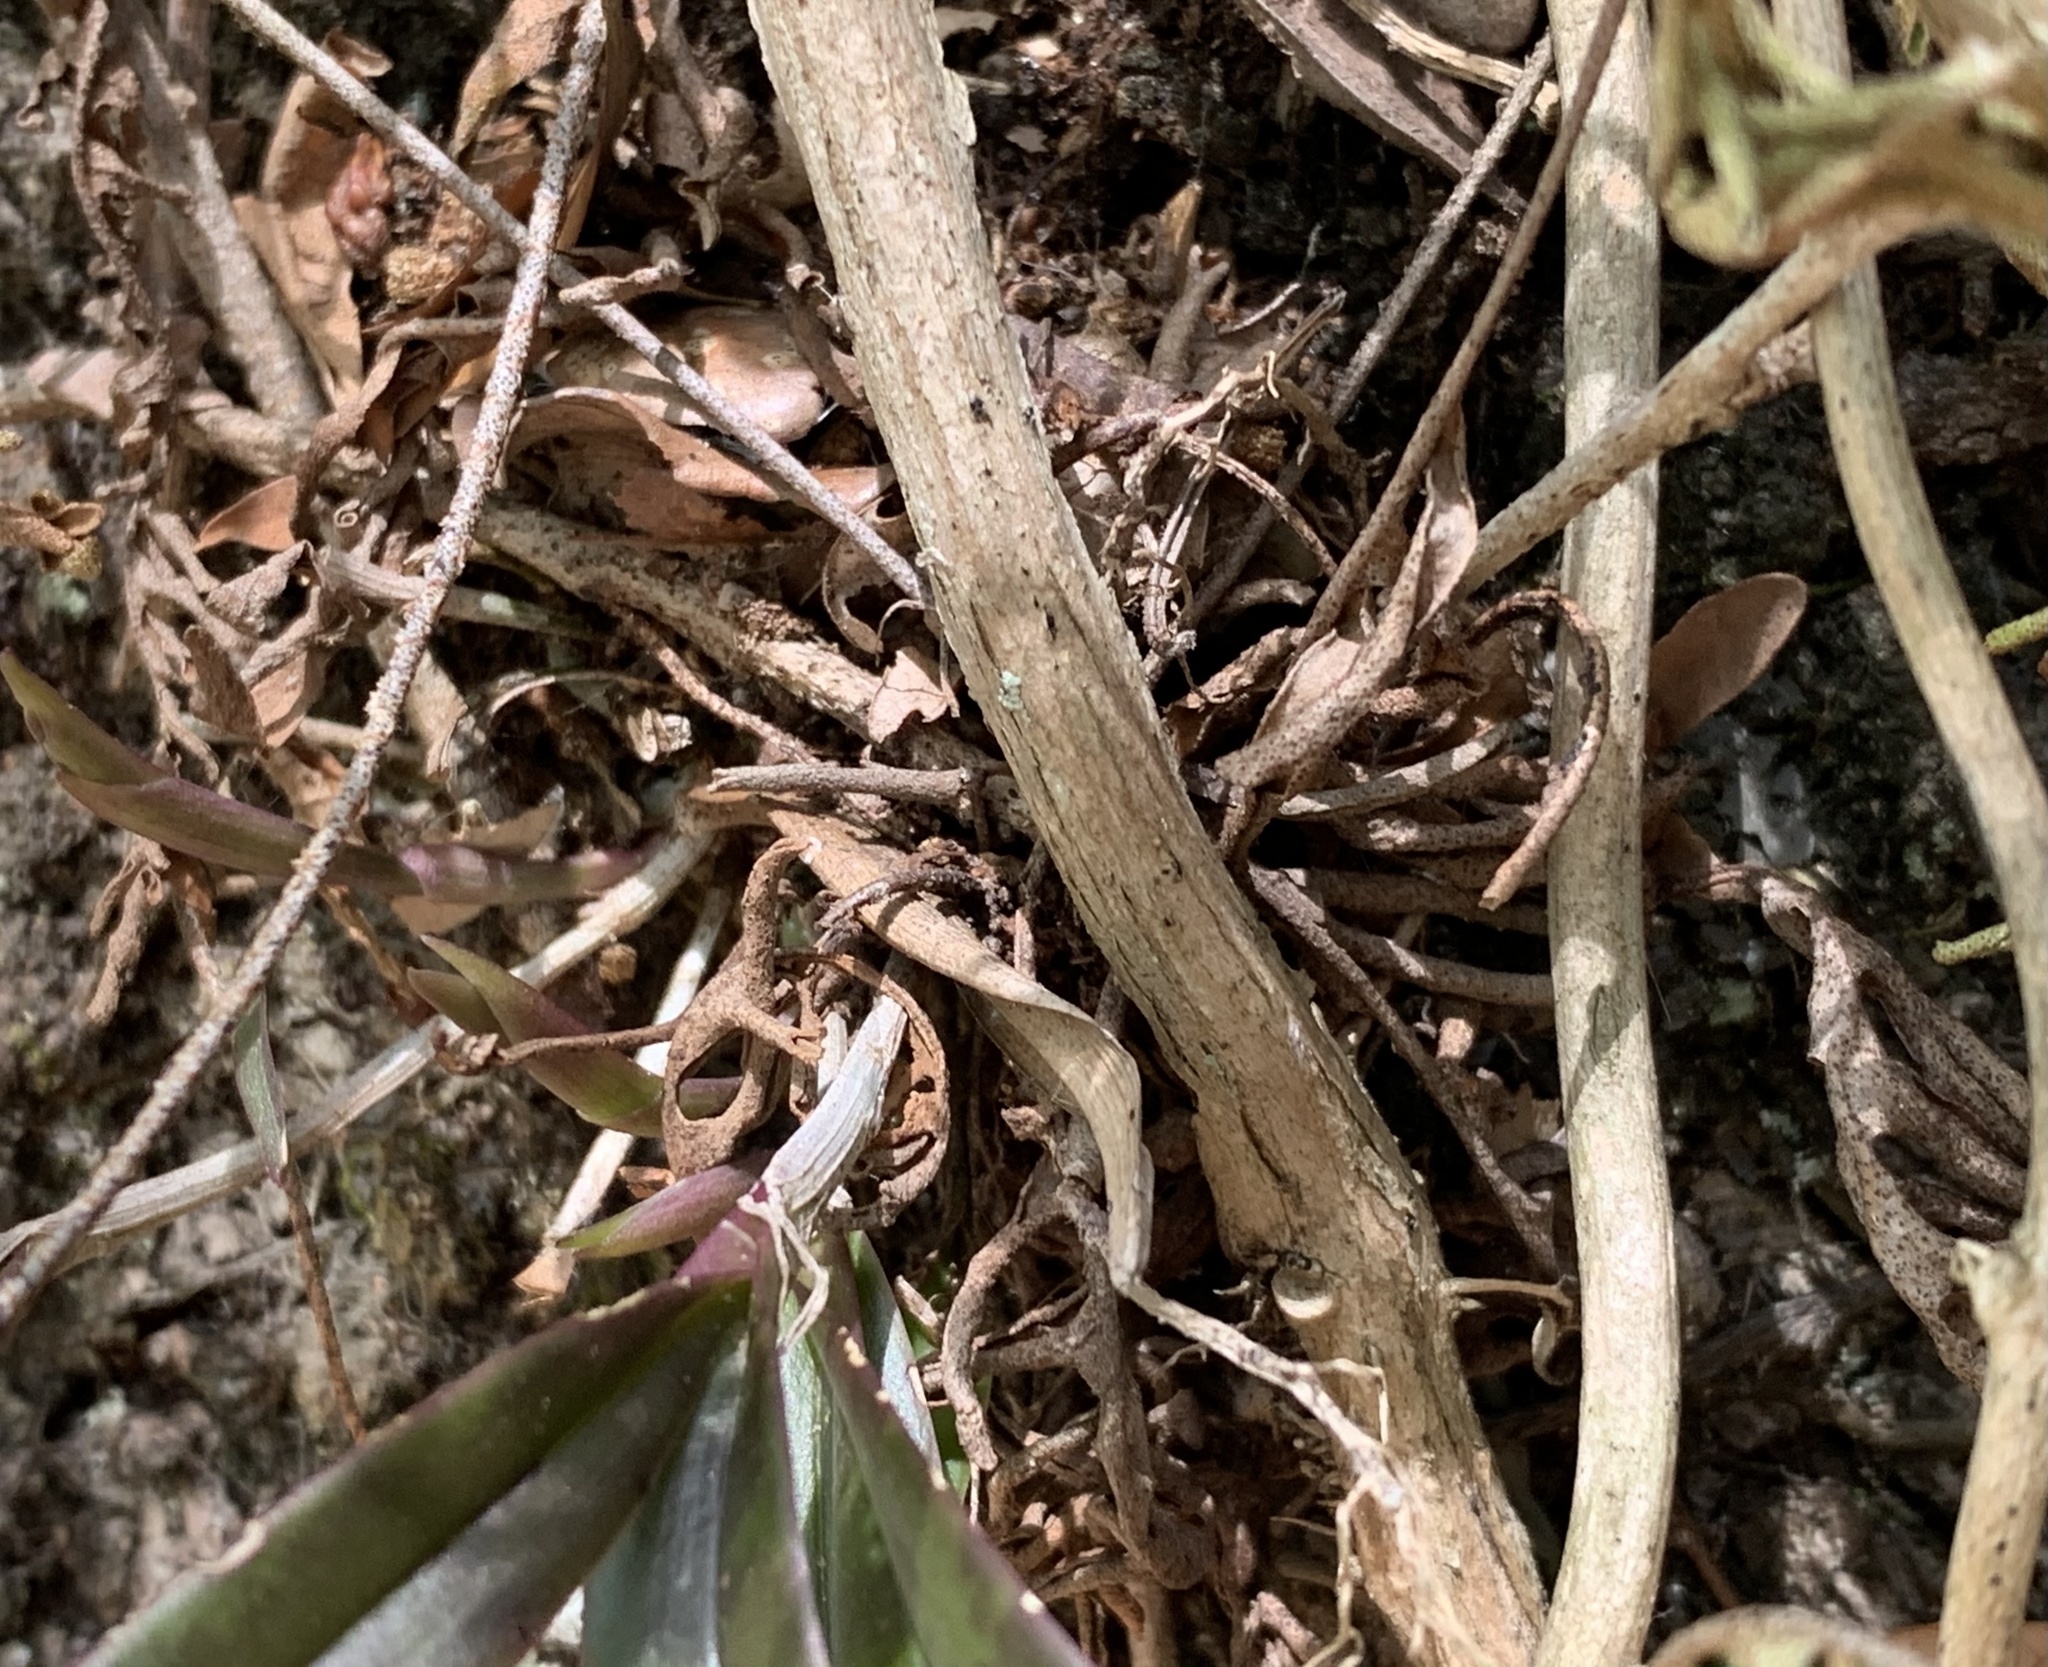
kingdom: Plantae
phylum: Tracheophyta
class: Liliopsida
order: Asparagales
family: Orchidaceae
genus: Epidendrum
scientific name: Epidendrum conopseum
